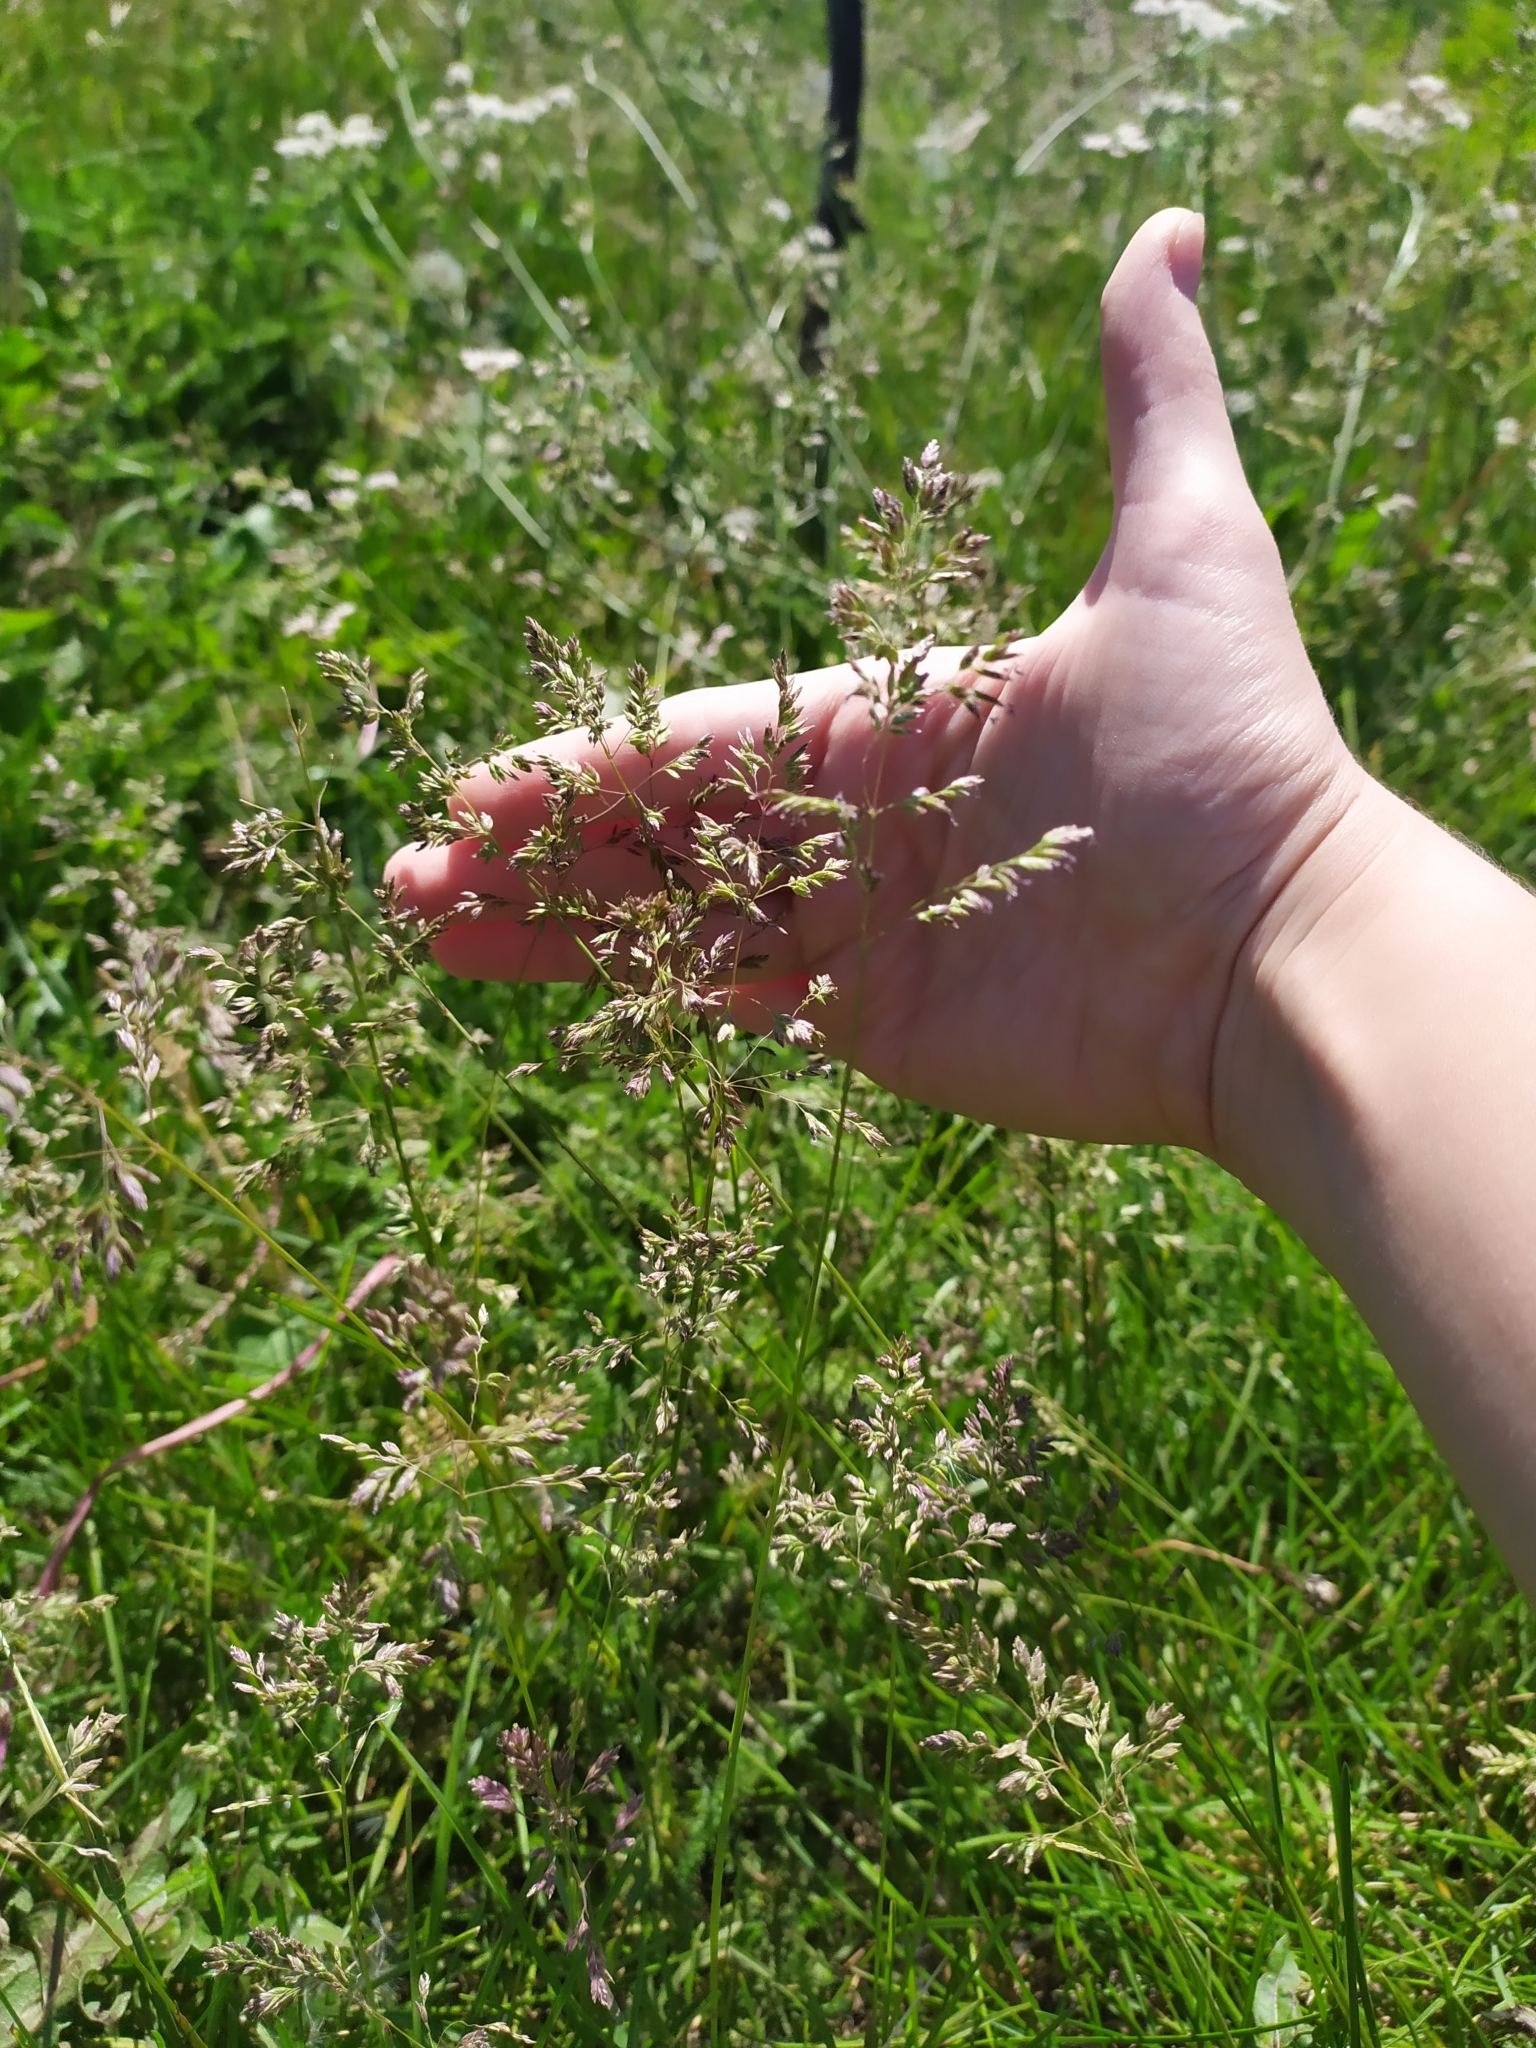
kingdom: Plantae
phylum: Tracheophyta
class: Liliopsida
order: Poales
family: Poaceae
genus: Poa
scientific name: Poa pratensis
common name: Kentucky bluegrass
